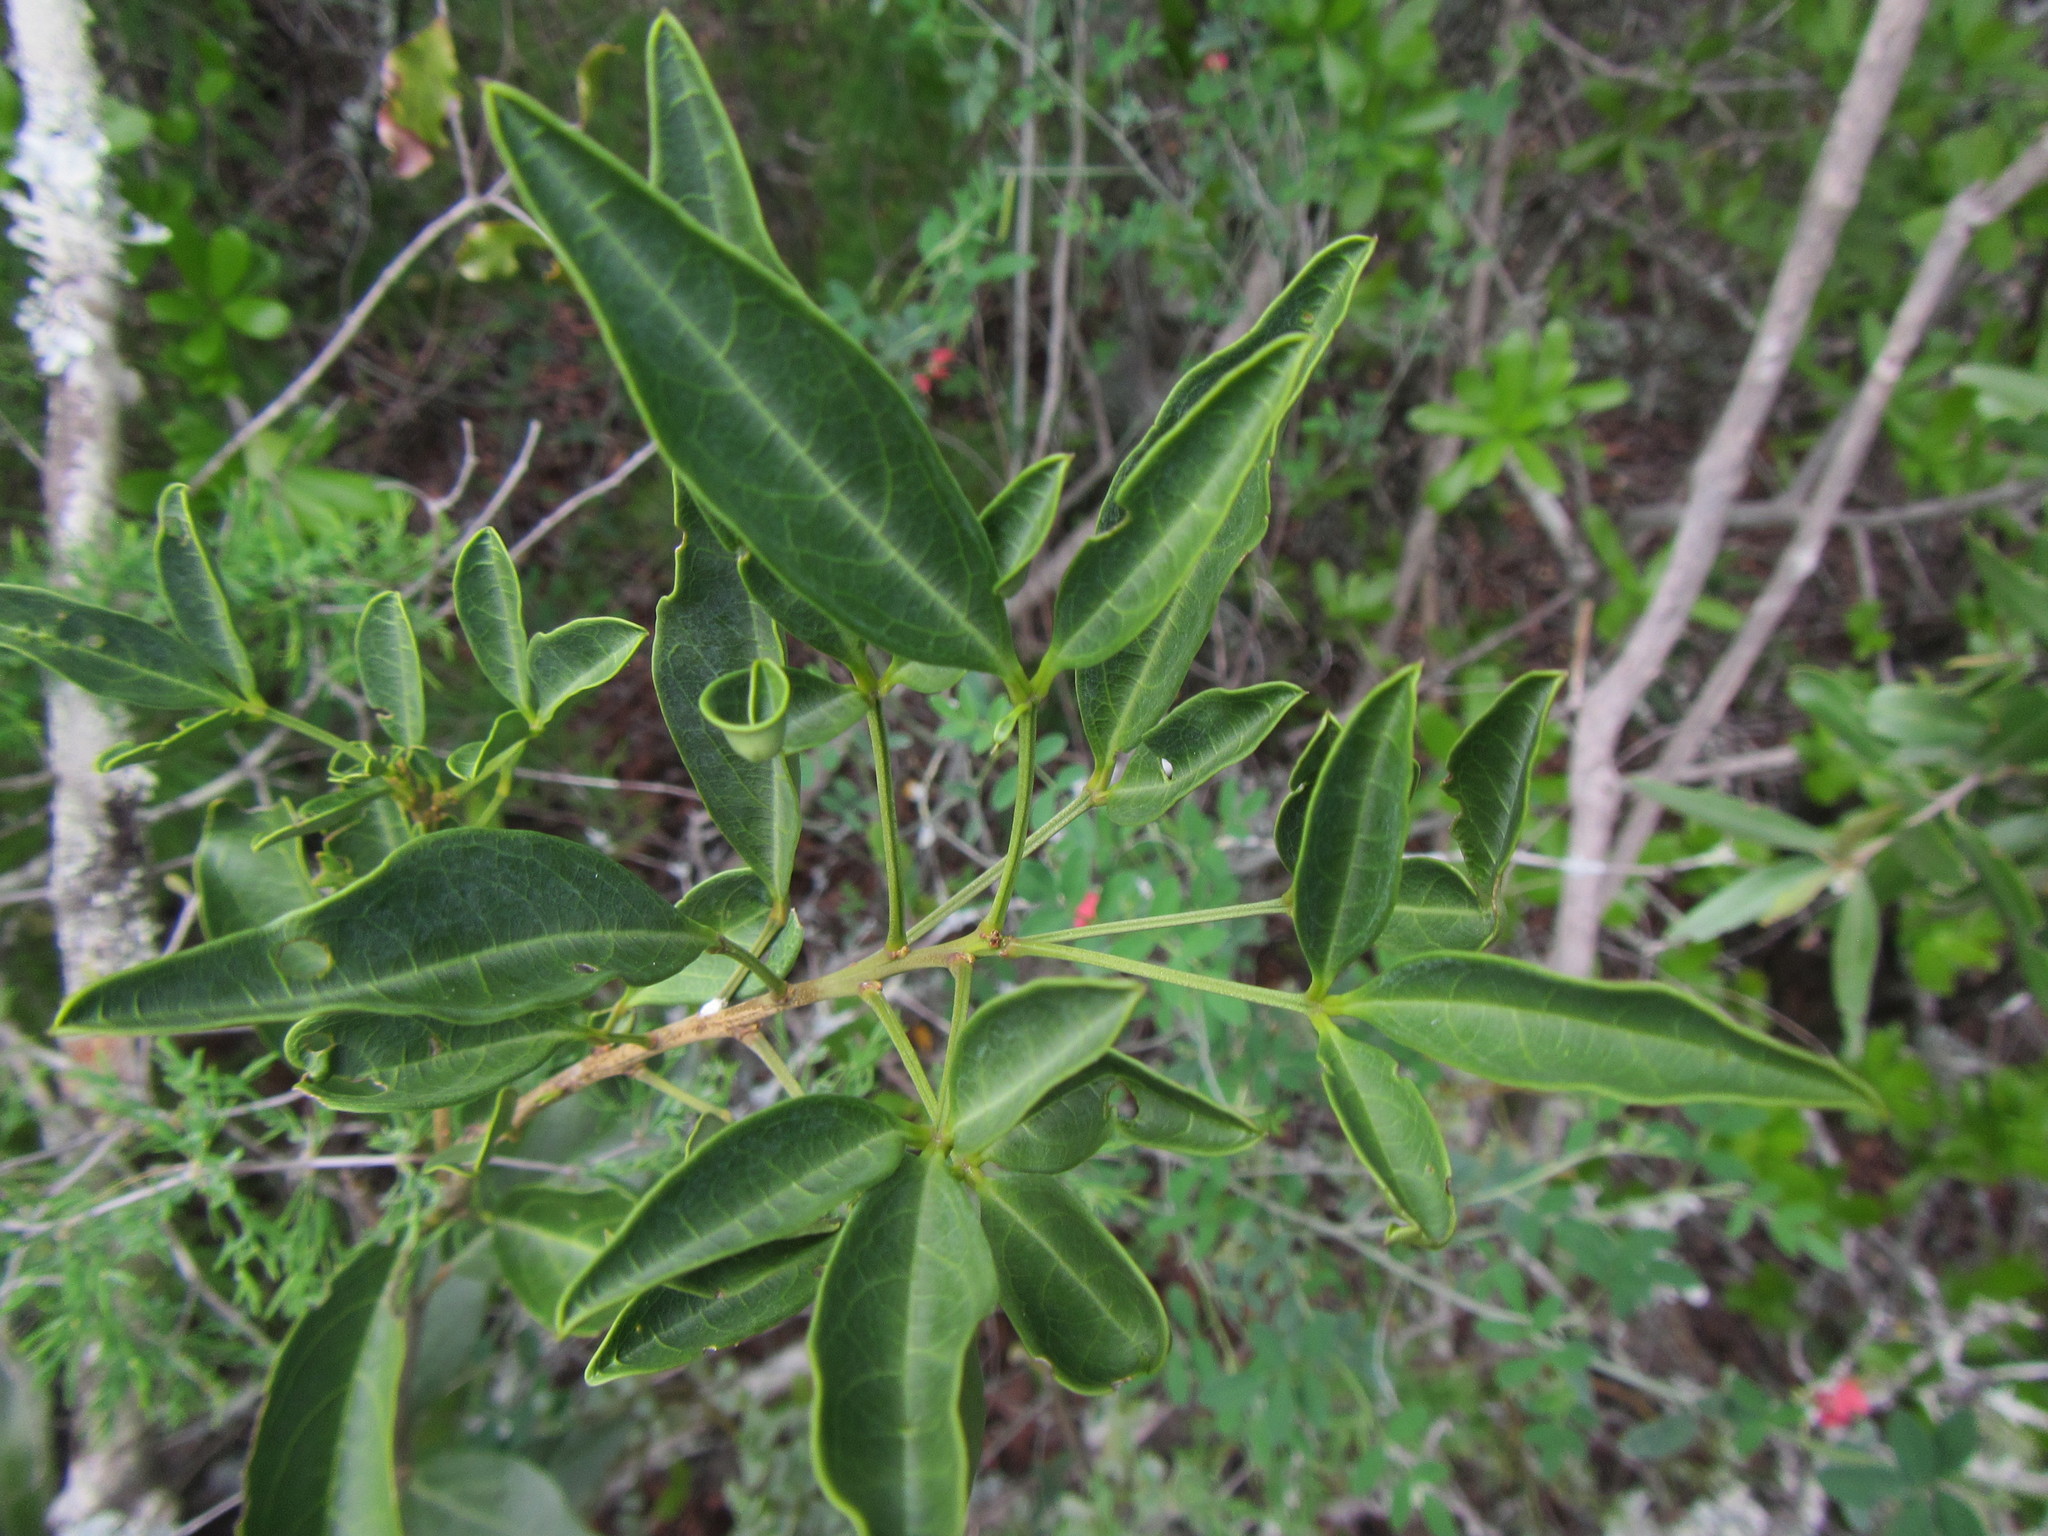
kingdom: Plantae
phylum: Tracheophyta
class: Magnoliopsida
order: Brassicales
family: Capparaceae
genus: Maerua
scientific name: Maerua cafra
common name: Bush maerua
